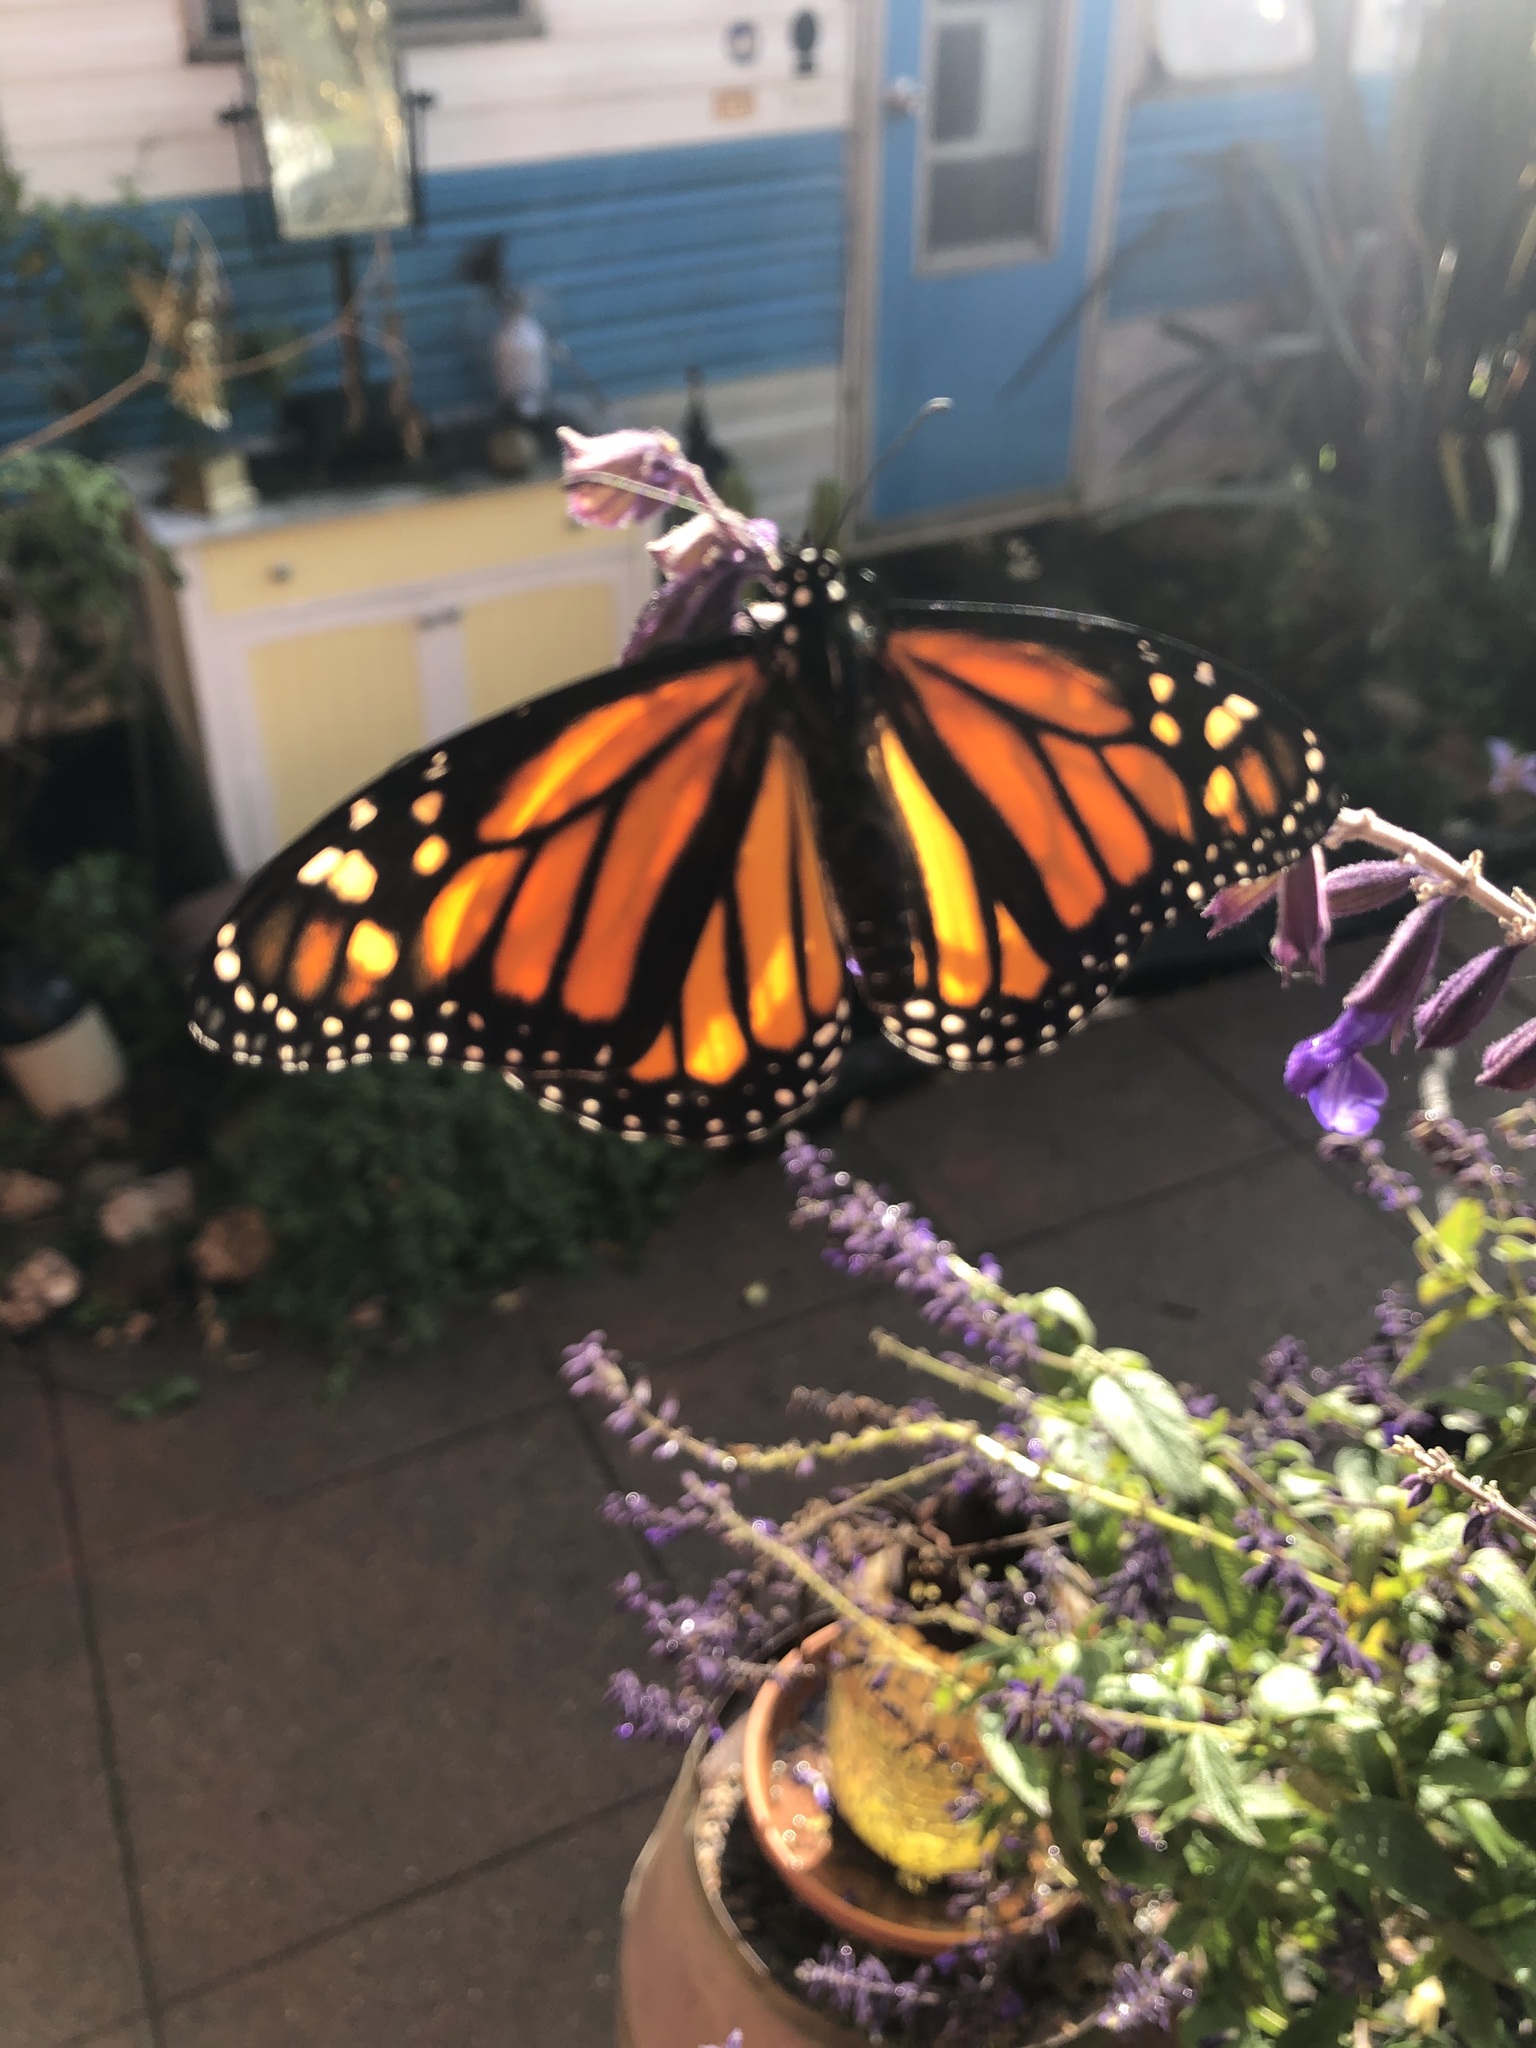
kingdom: Animalia
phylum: Arthropoda
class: Insecta
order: Lepidoptera
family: Nymphalidae
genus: Danaus
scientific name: Danaus plexippus
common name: Monarch
